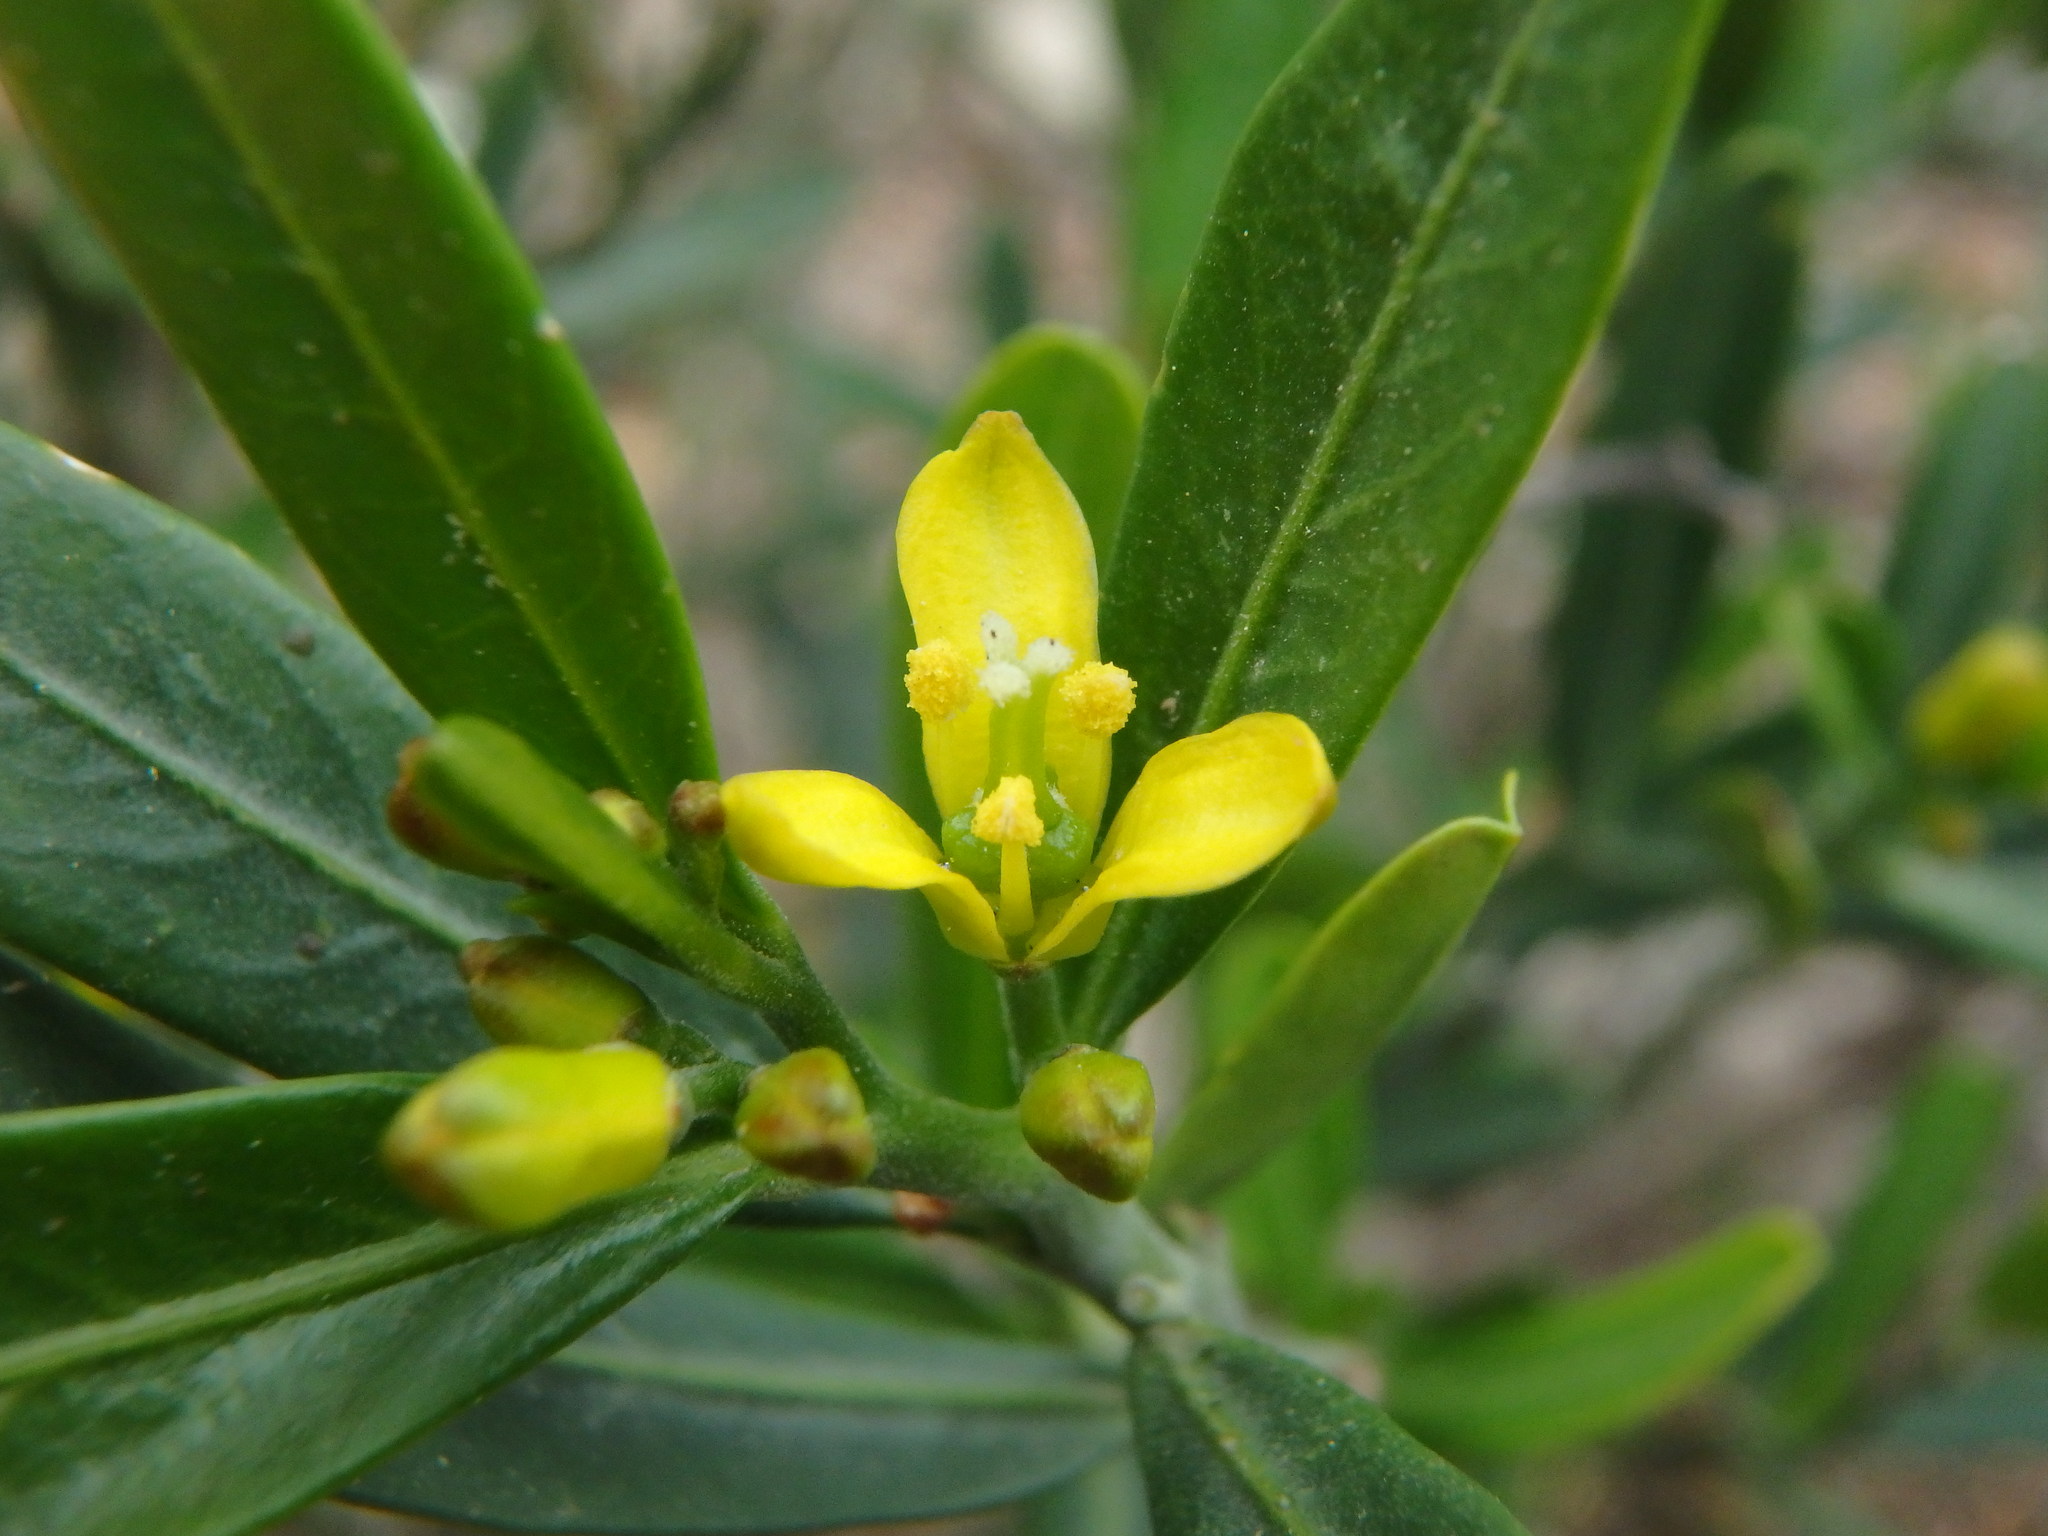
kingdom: Plantae
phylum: Tracheophyta
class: Magnoliopsida
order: Sapindales
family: Rutaceae
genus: Cneorum
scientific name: Cneorum tricoccon
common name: Spurge olive
